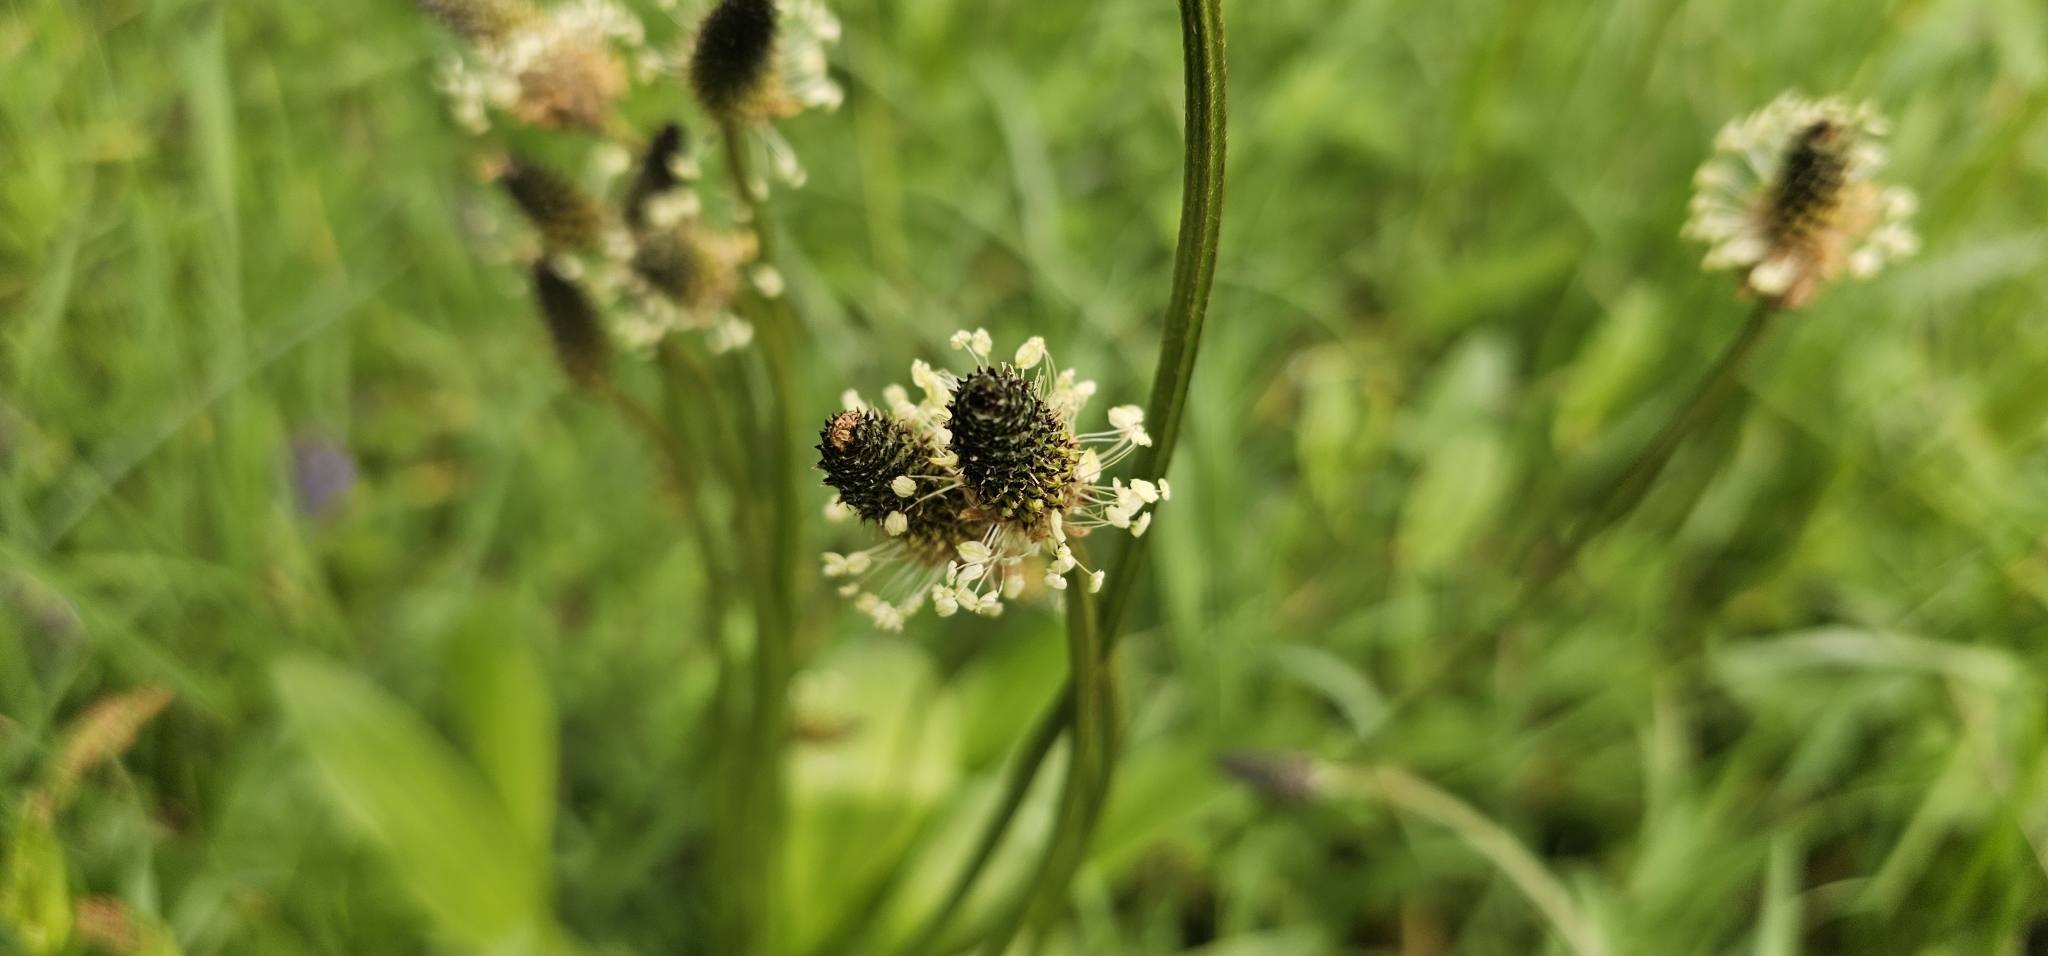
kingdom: Plantae
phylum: Tracheophyta
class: Magnoliopsida
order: Lamiales
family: Plantaginaceae
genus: Plantago
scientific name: Plantago lanceolata
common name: Ribwort plantain
